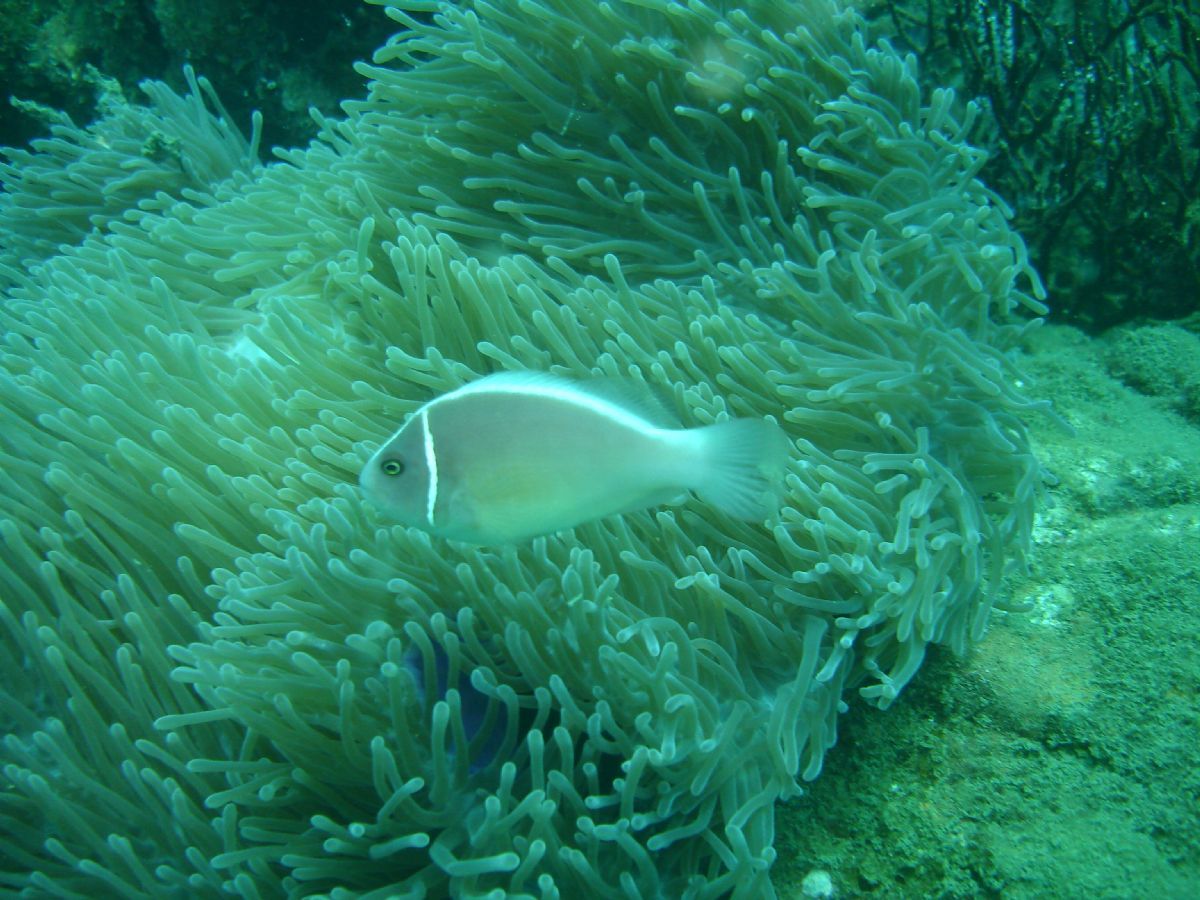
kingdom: Animalia
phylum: Chordata
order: Perciformes
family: Pomacentridae
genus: Amphiprion
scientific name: Amphiprion perideraion
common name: Pink anemonefish
